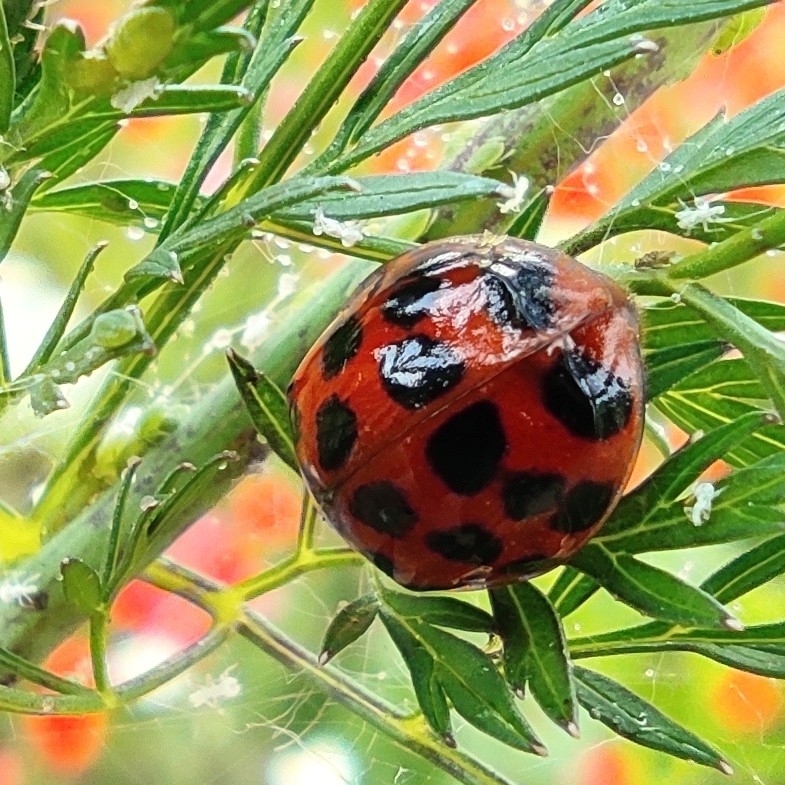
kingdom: Animalia
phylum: Arthropoda
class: Insecta
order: Coleoptera
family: Coccinellidae
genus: Harmonia
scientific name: Harmonia axyridis
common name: Harlequin ladybird
